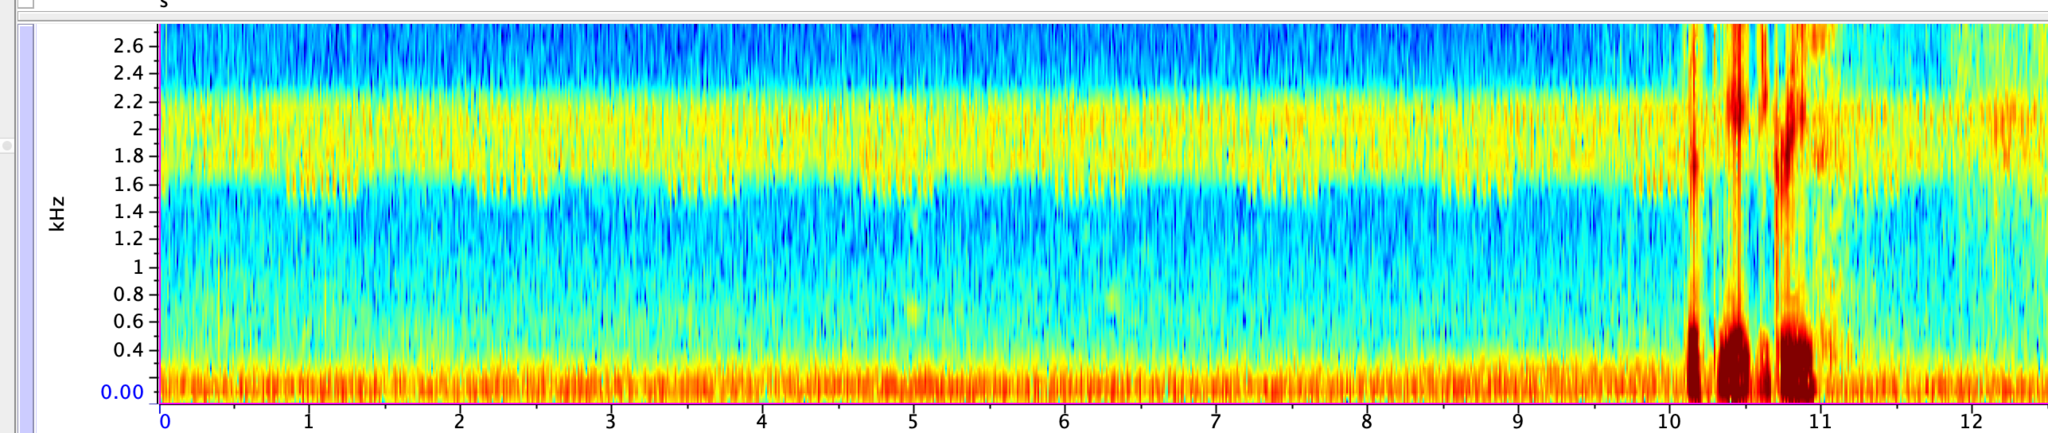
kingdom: Animalia
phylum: Arthropoda
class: Insecta
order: Orthoptera
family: Gryllidae
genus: Oecanthus
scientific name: Oecanthus rileyi
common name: Riley's tree cricket
